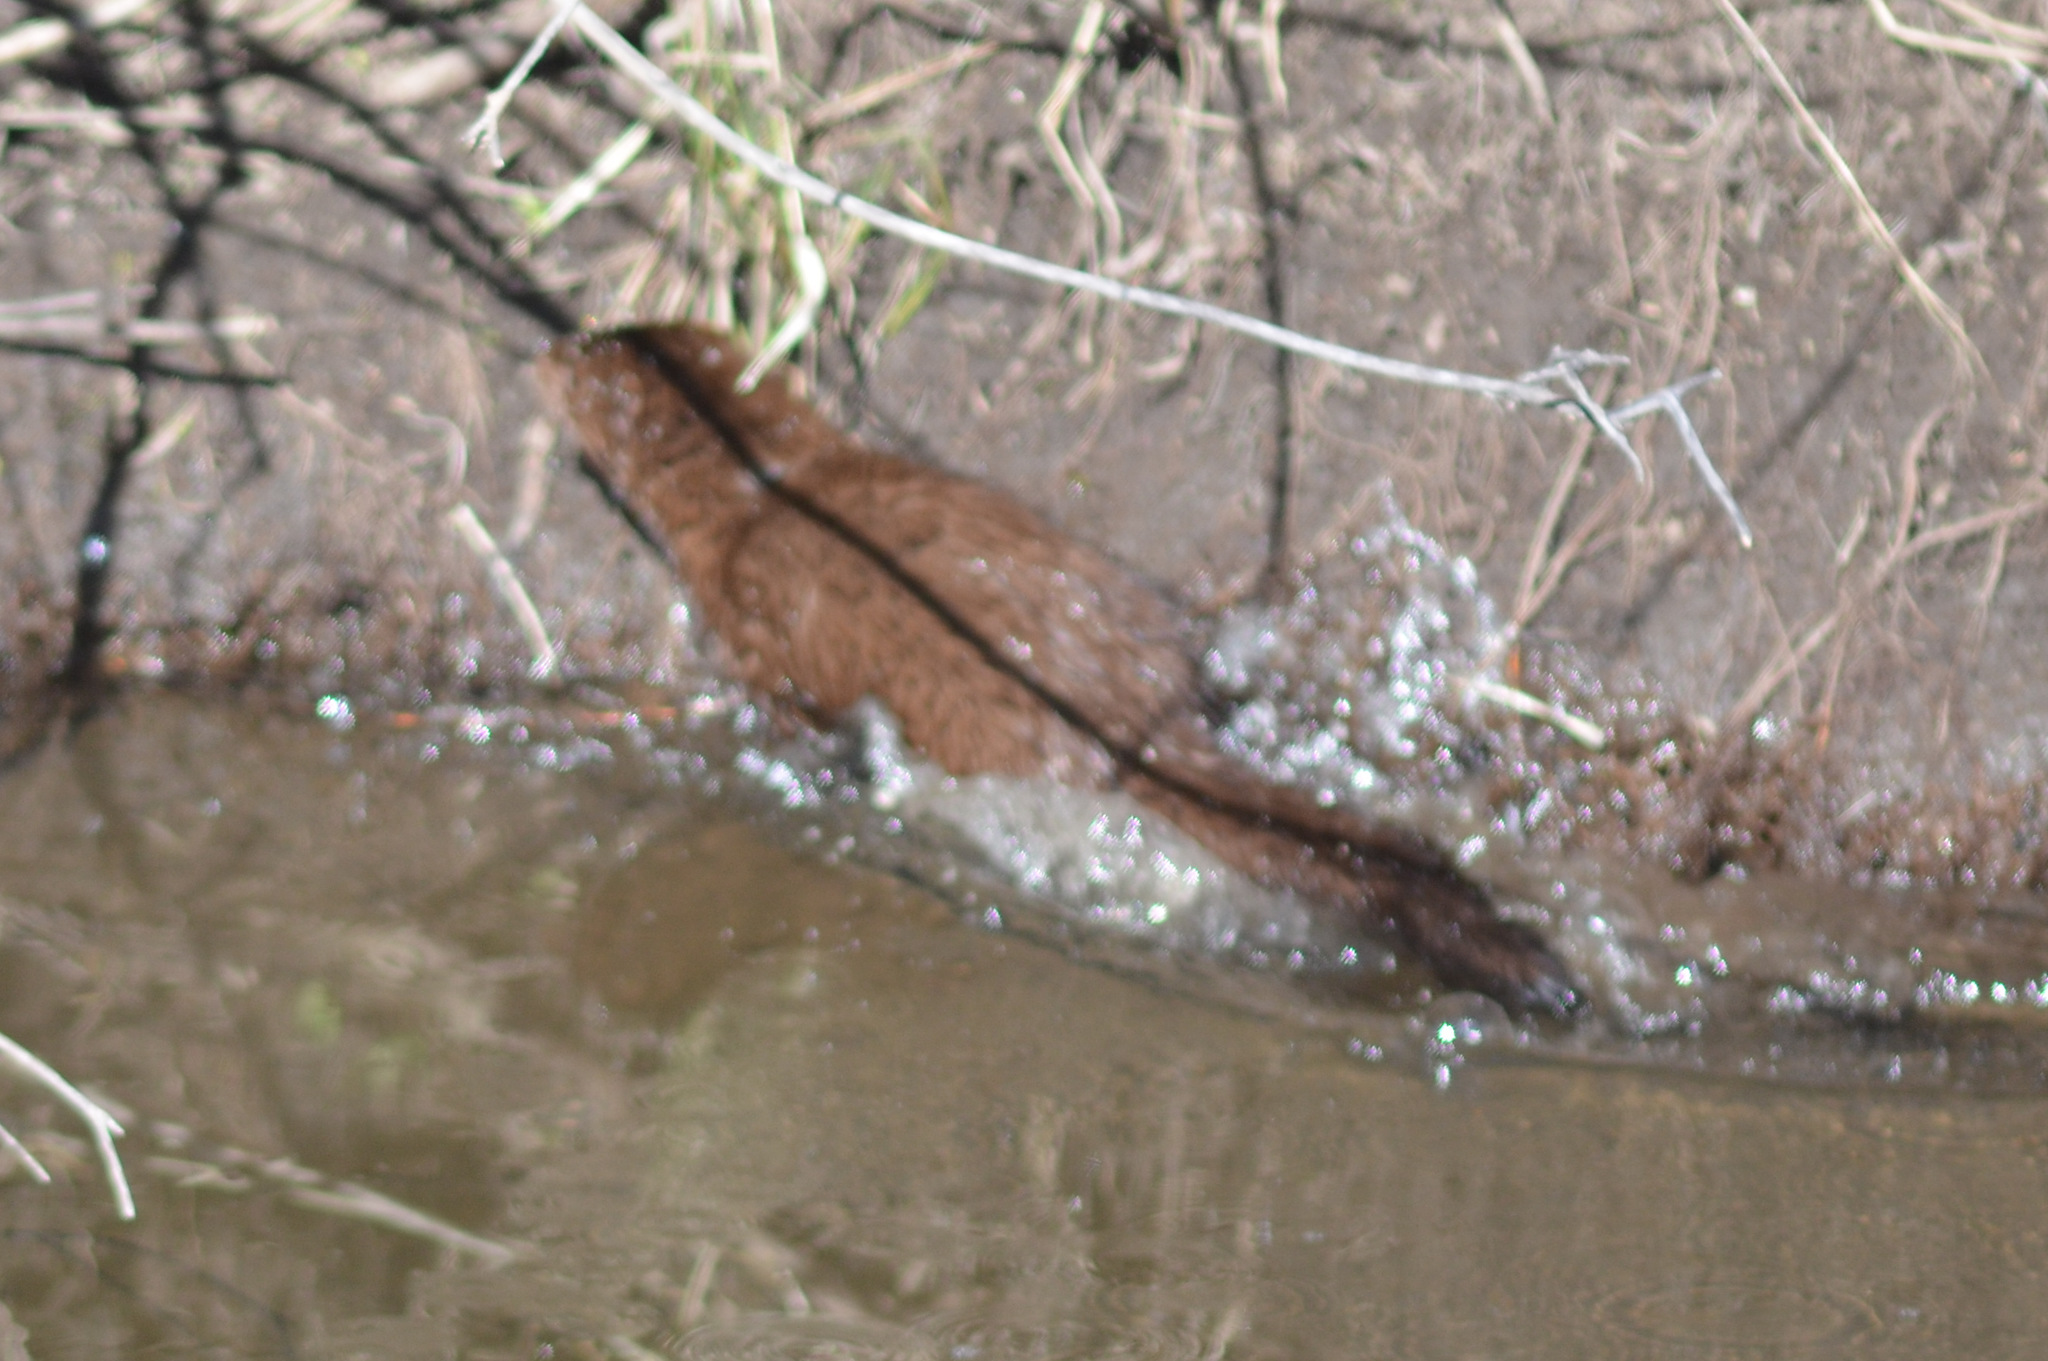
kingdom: Animalia
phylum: Chordata
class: Mammalia
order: Carnivora
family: Mustelidae
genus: Mustela
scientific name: Mustela
